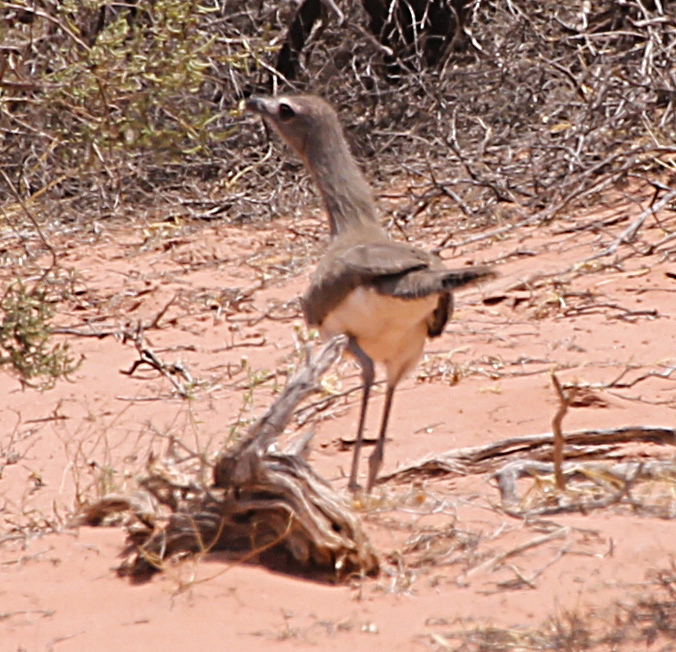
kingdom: Animalia
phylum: Chordata
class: Aves
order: Cariamiformes
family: Cariamidae
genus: Chunga
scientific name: Chunga burmeisteri
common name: Black-legged seriema
